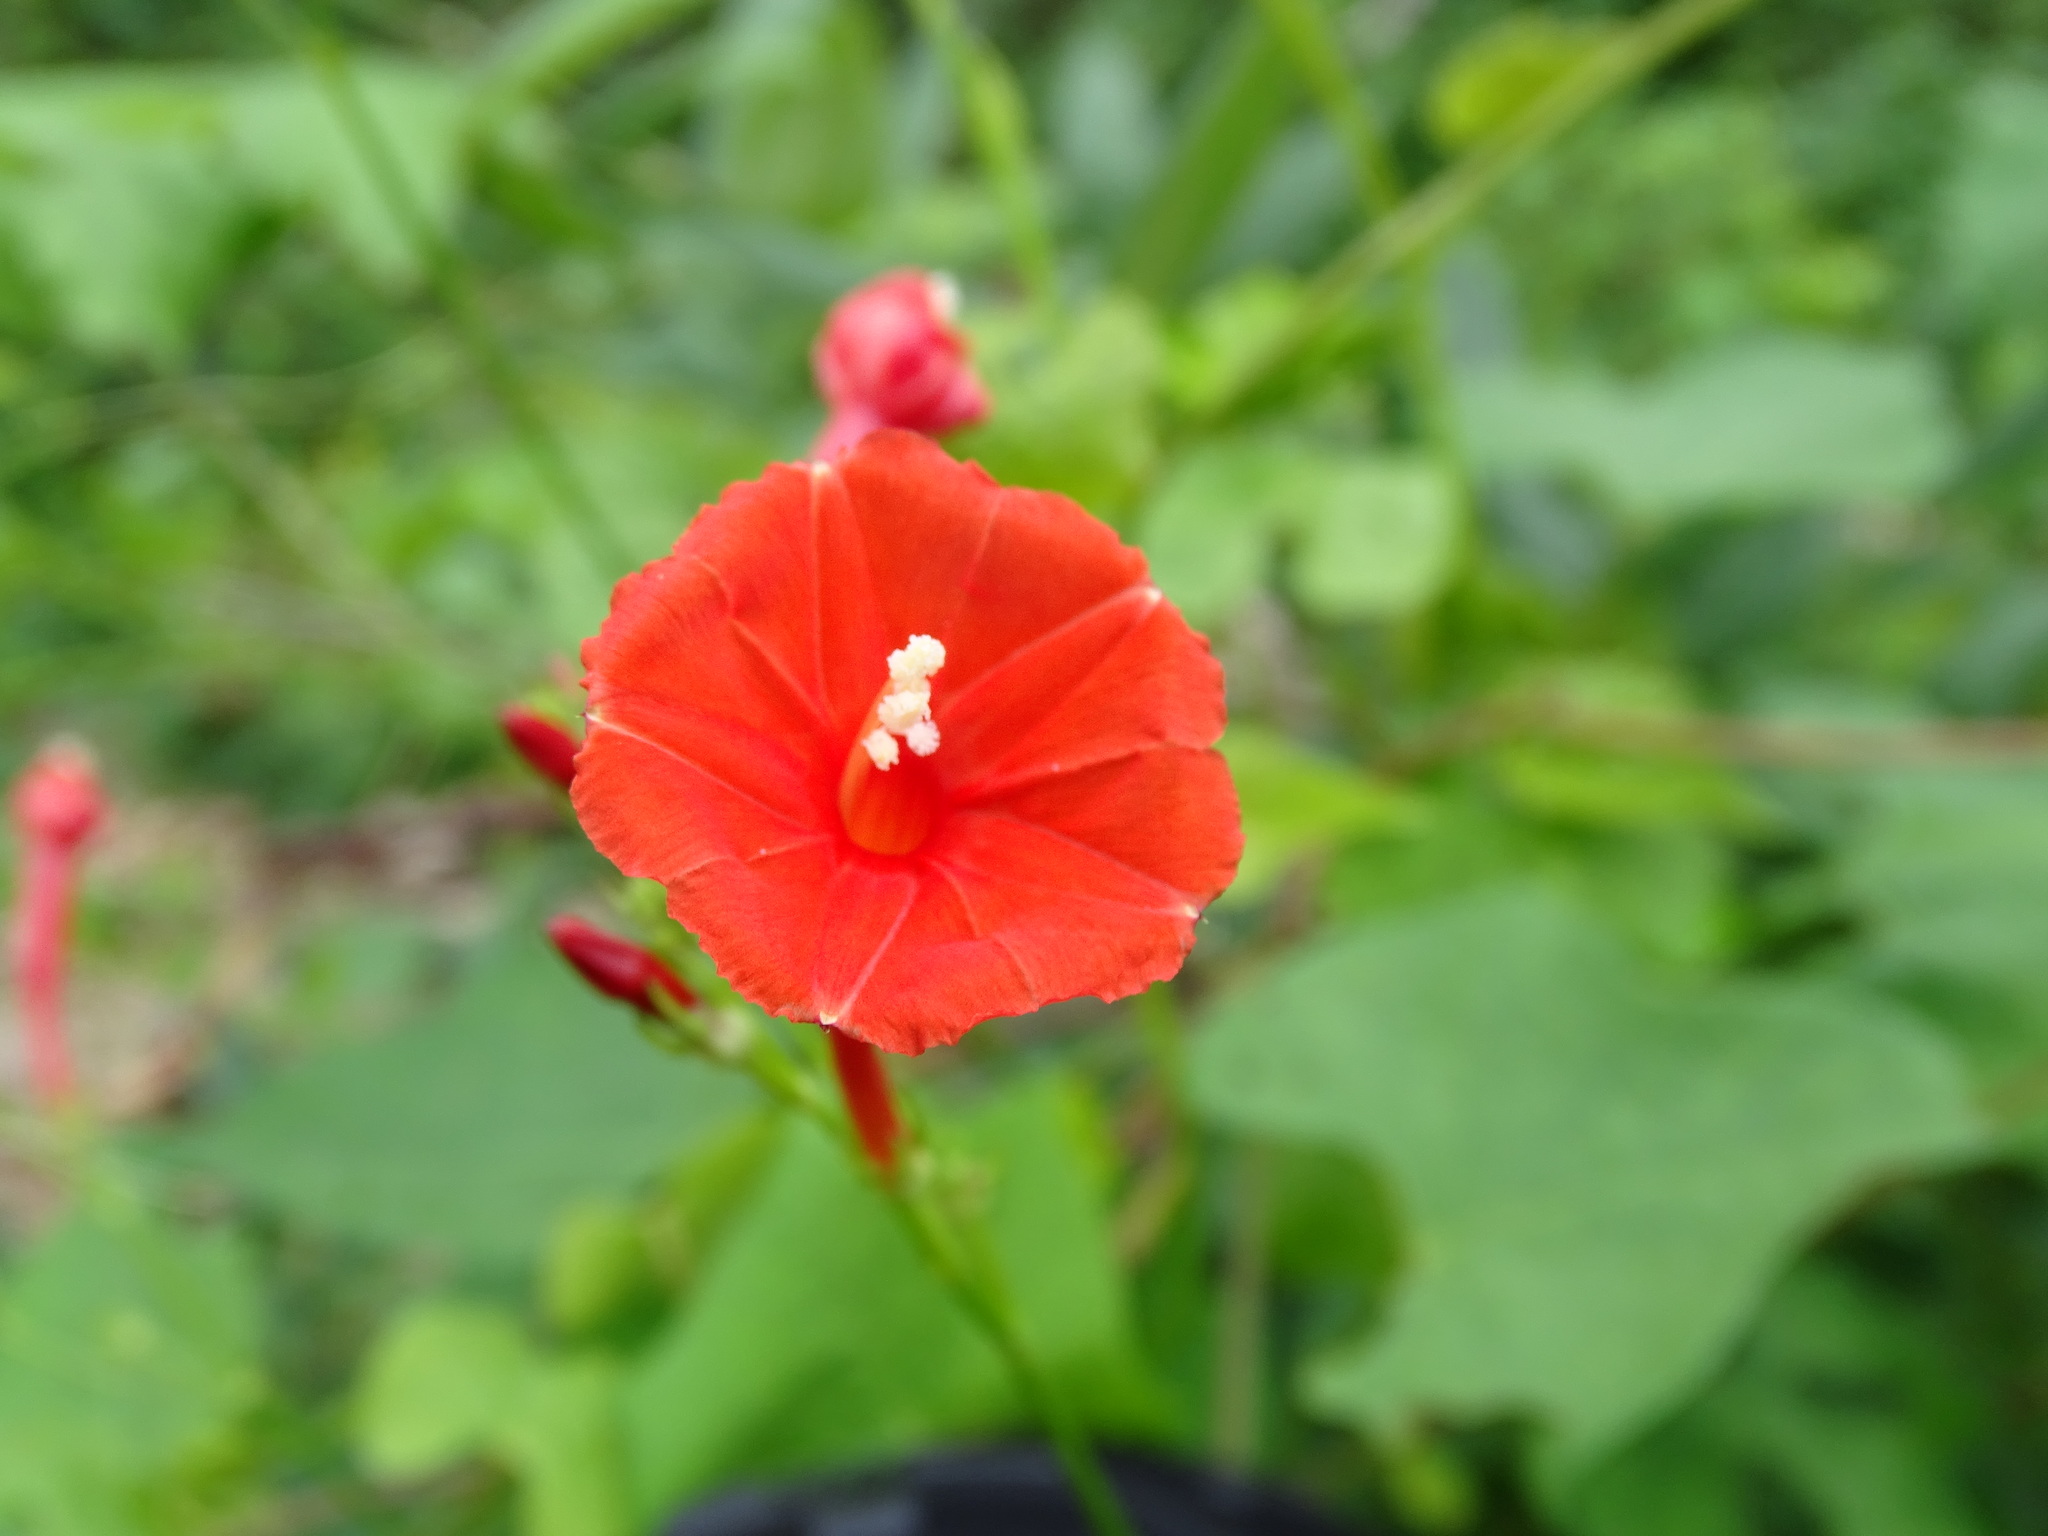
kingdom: Plantae
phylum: Tracheophyta
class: Magnoliopsida
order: Solanales
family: Convolvulaceae
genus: Ipomoea
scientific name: Ipomoea hederifolia
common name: Ivy-leaf morning-glory
